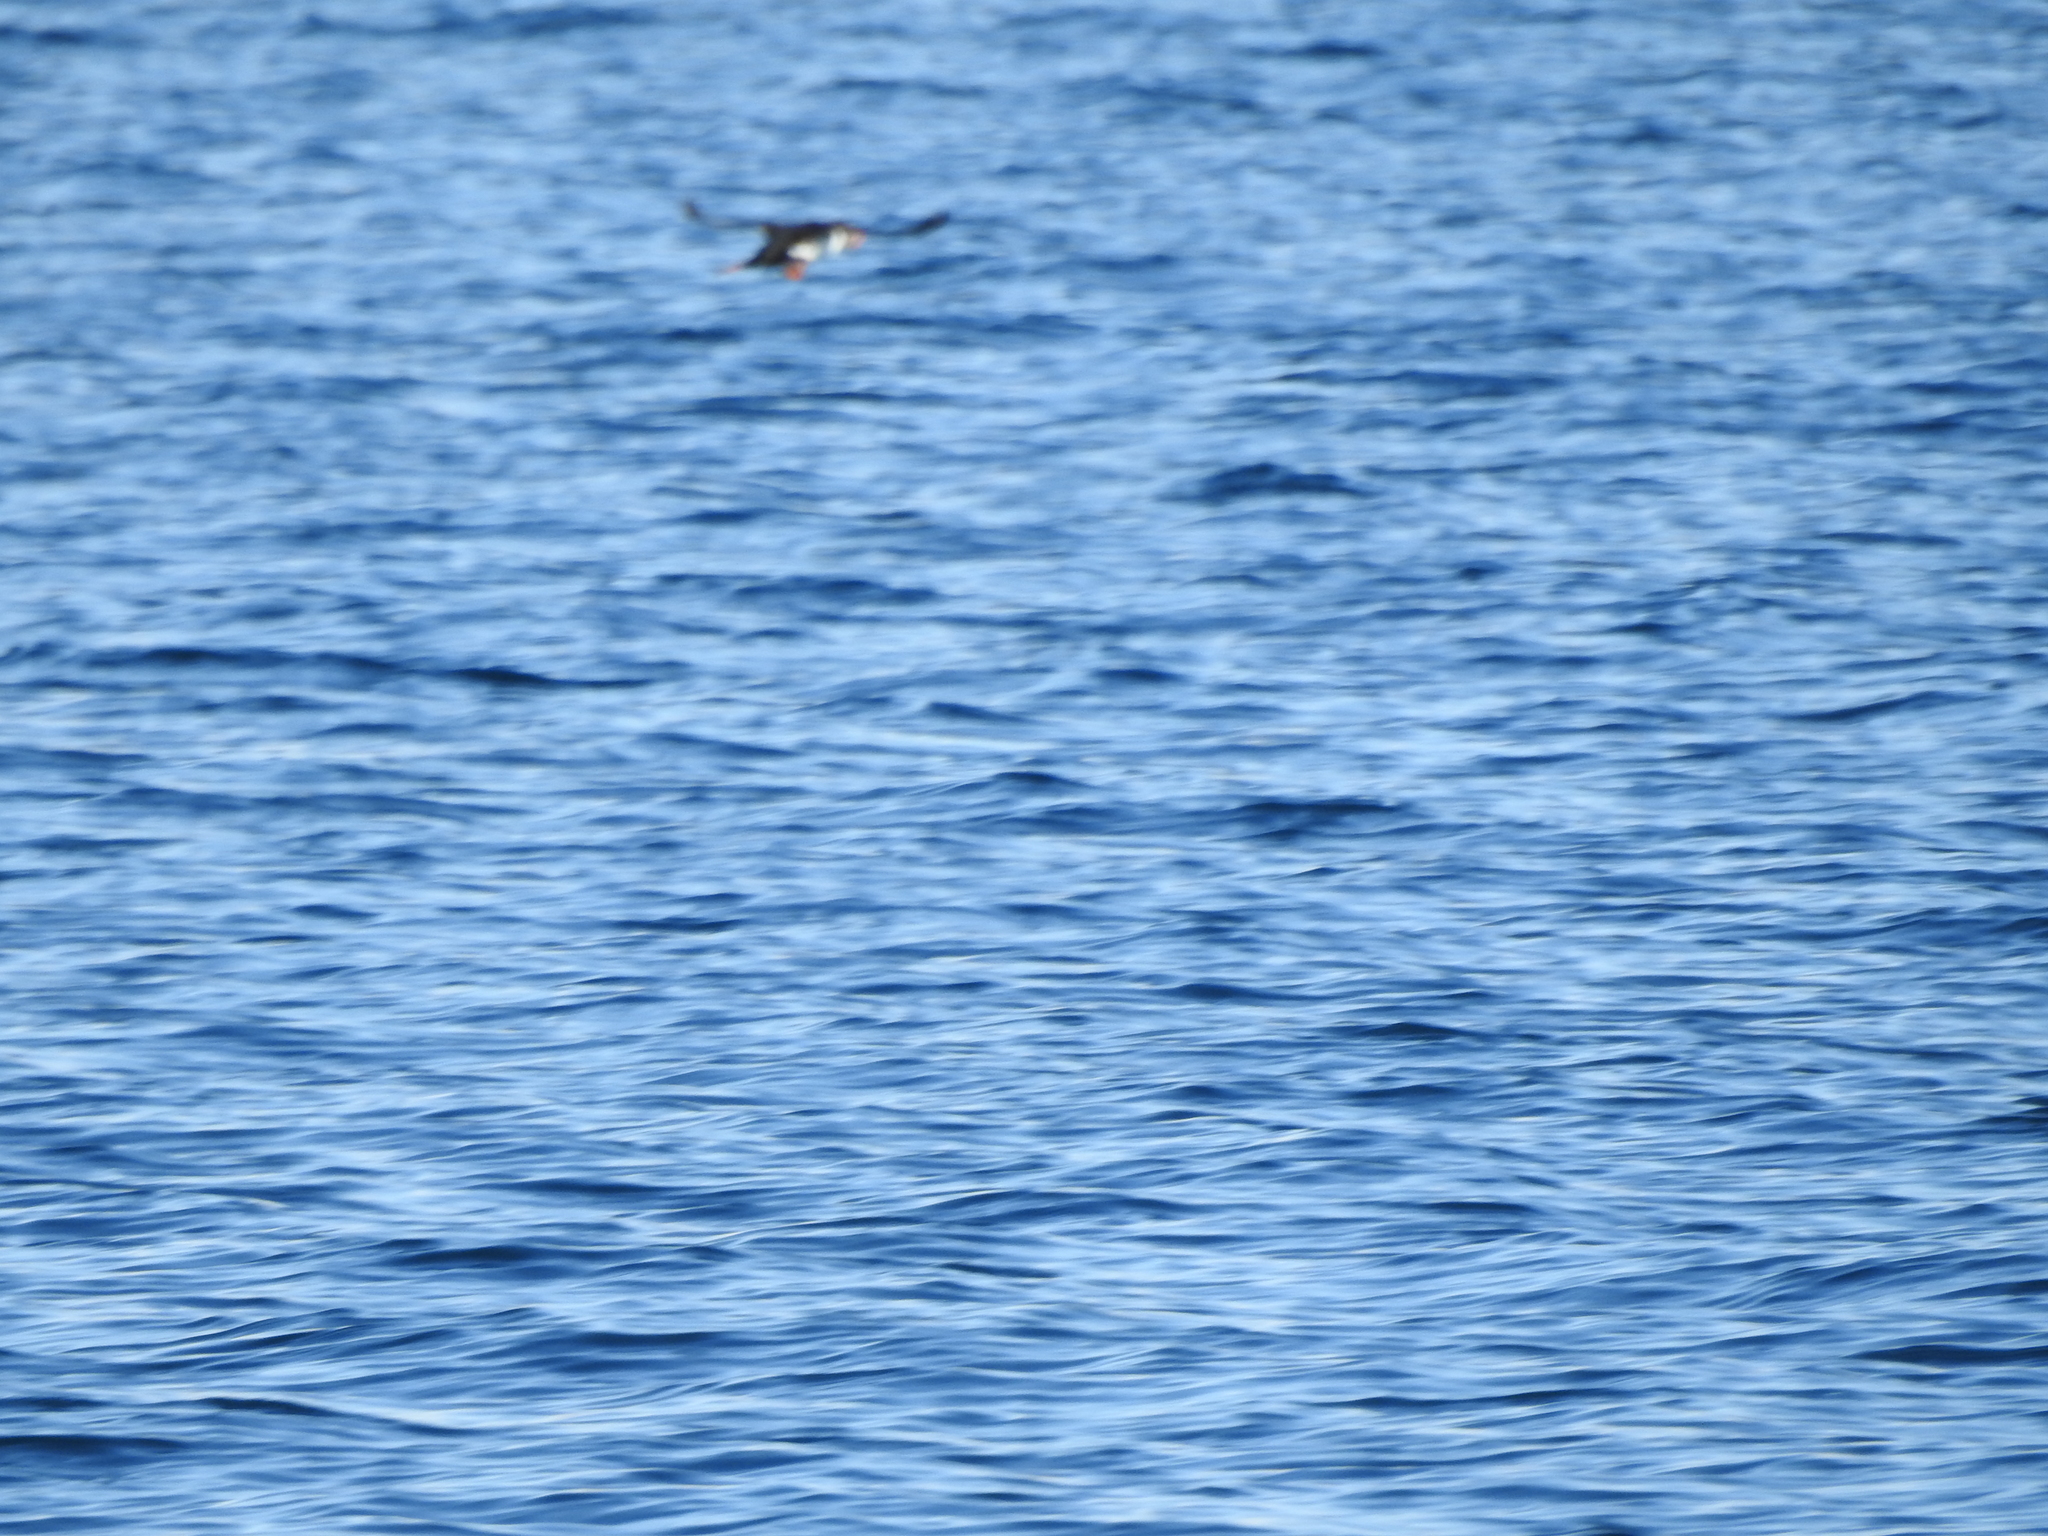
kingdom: Animalia
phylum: Chordata
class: Aves
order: Charadriiformes
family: Alcidae
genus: Fratercula
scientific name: Fratercula arctica
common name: Atlantic puffin
